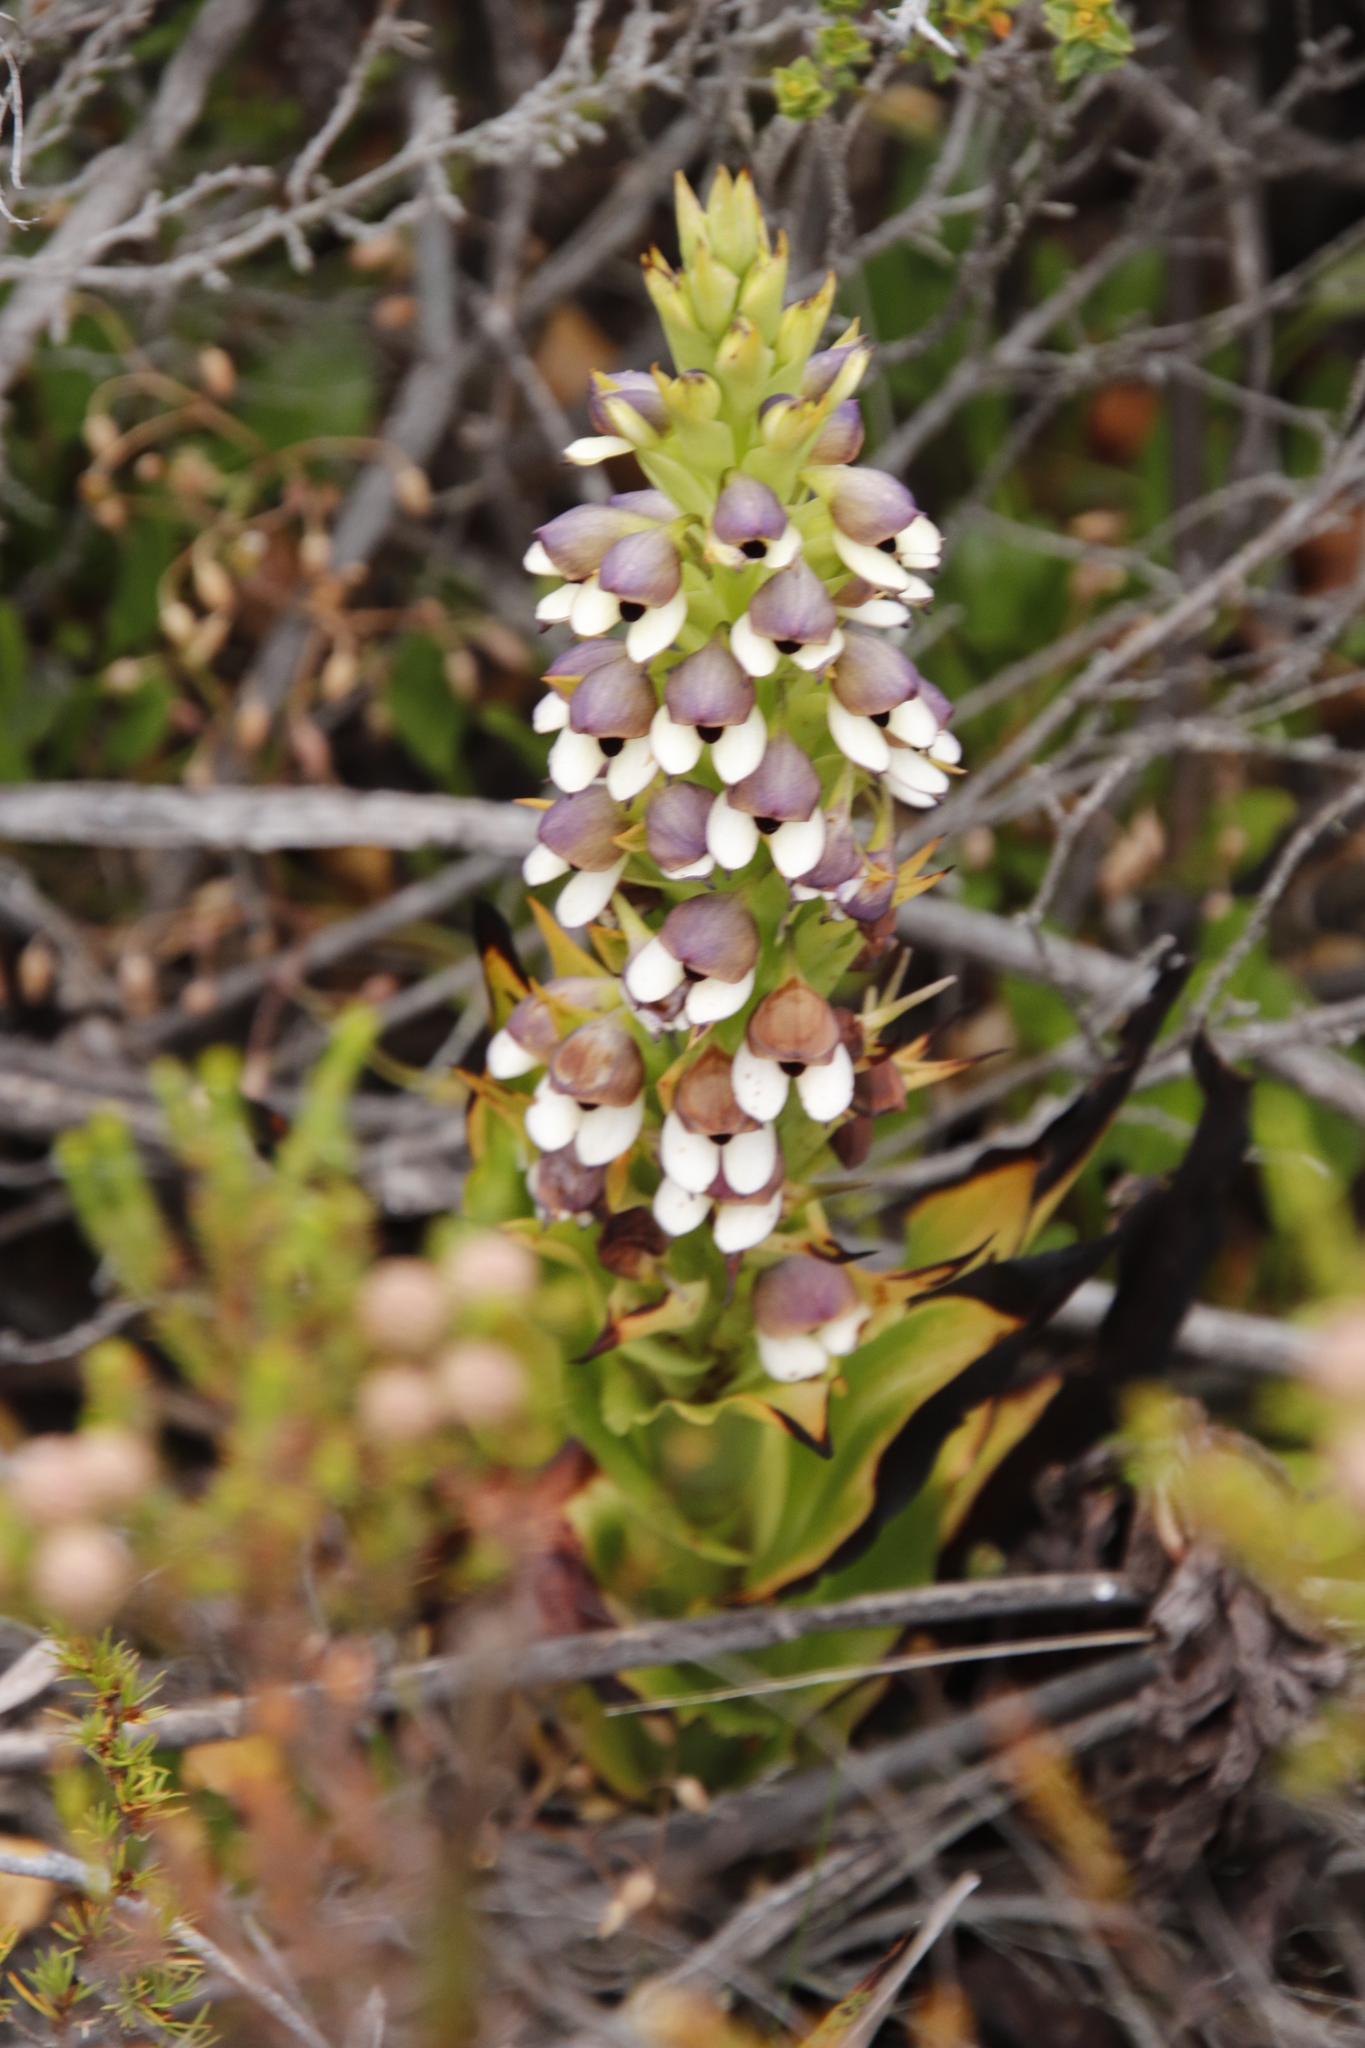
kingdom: Plantae
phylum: Tracheophyta
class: Liliopsida
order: Asparagales
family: Orchidaceae
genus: Disa
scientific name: Disa cornuta
